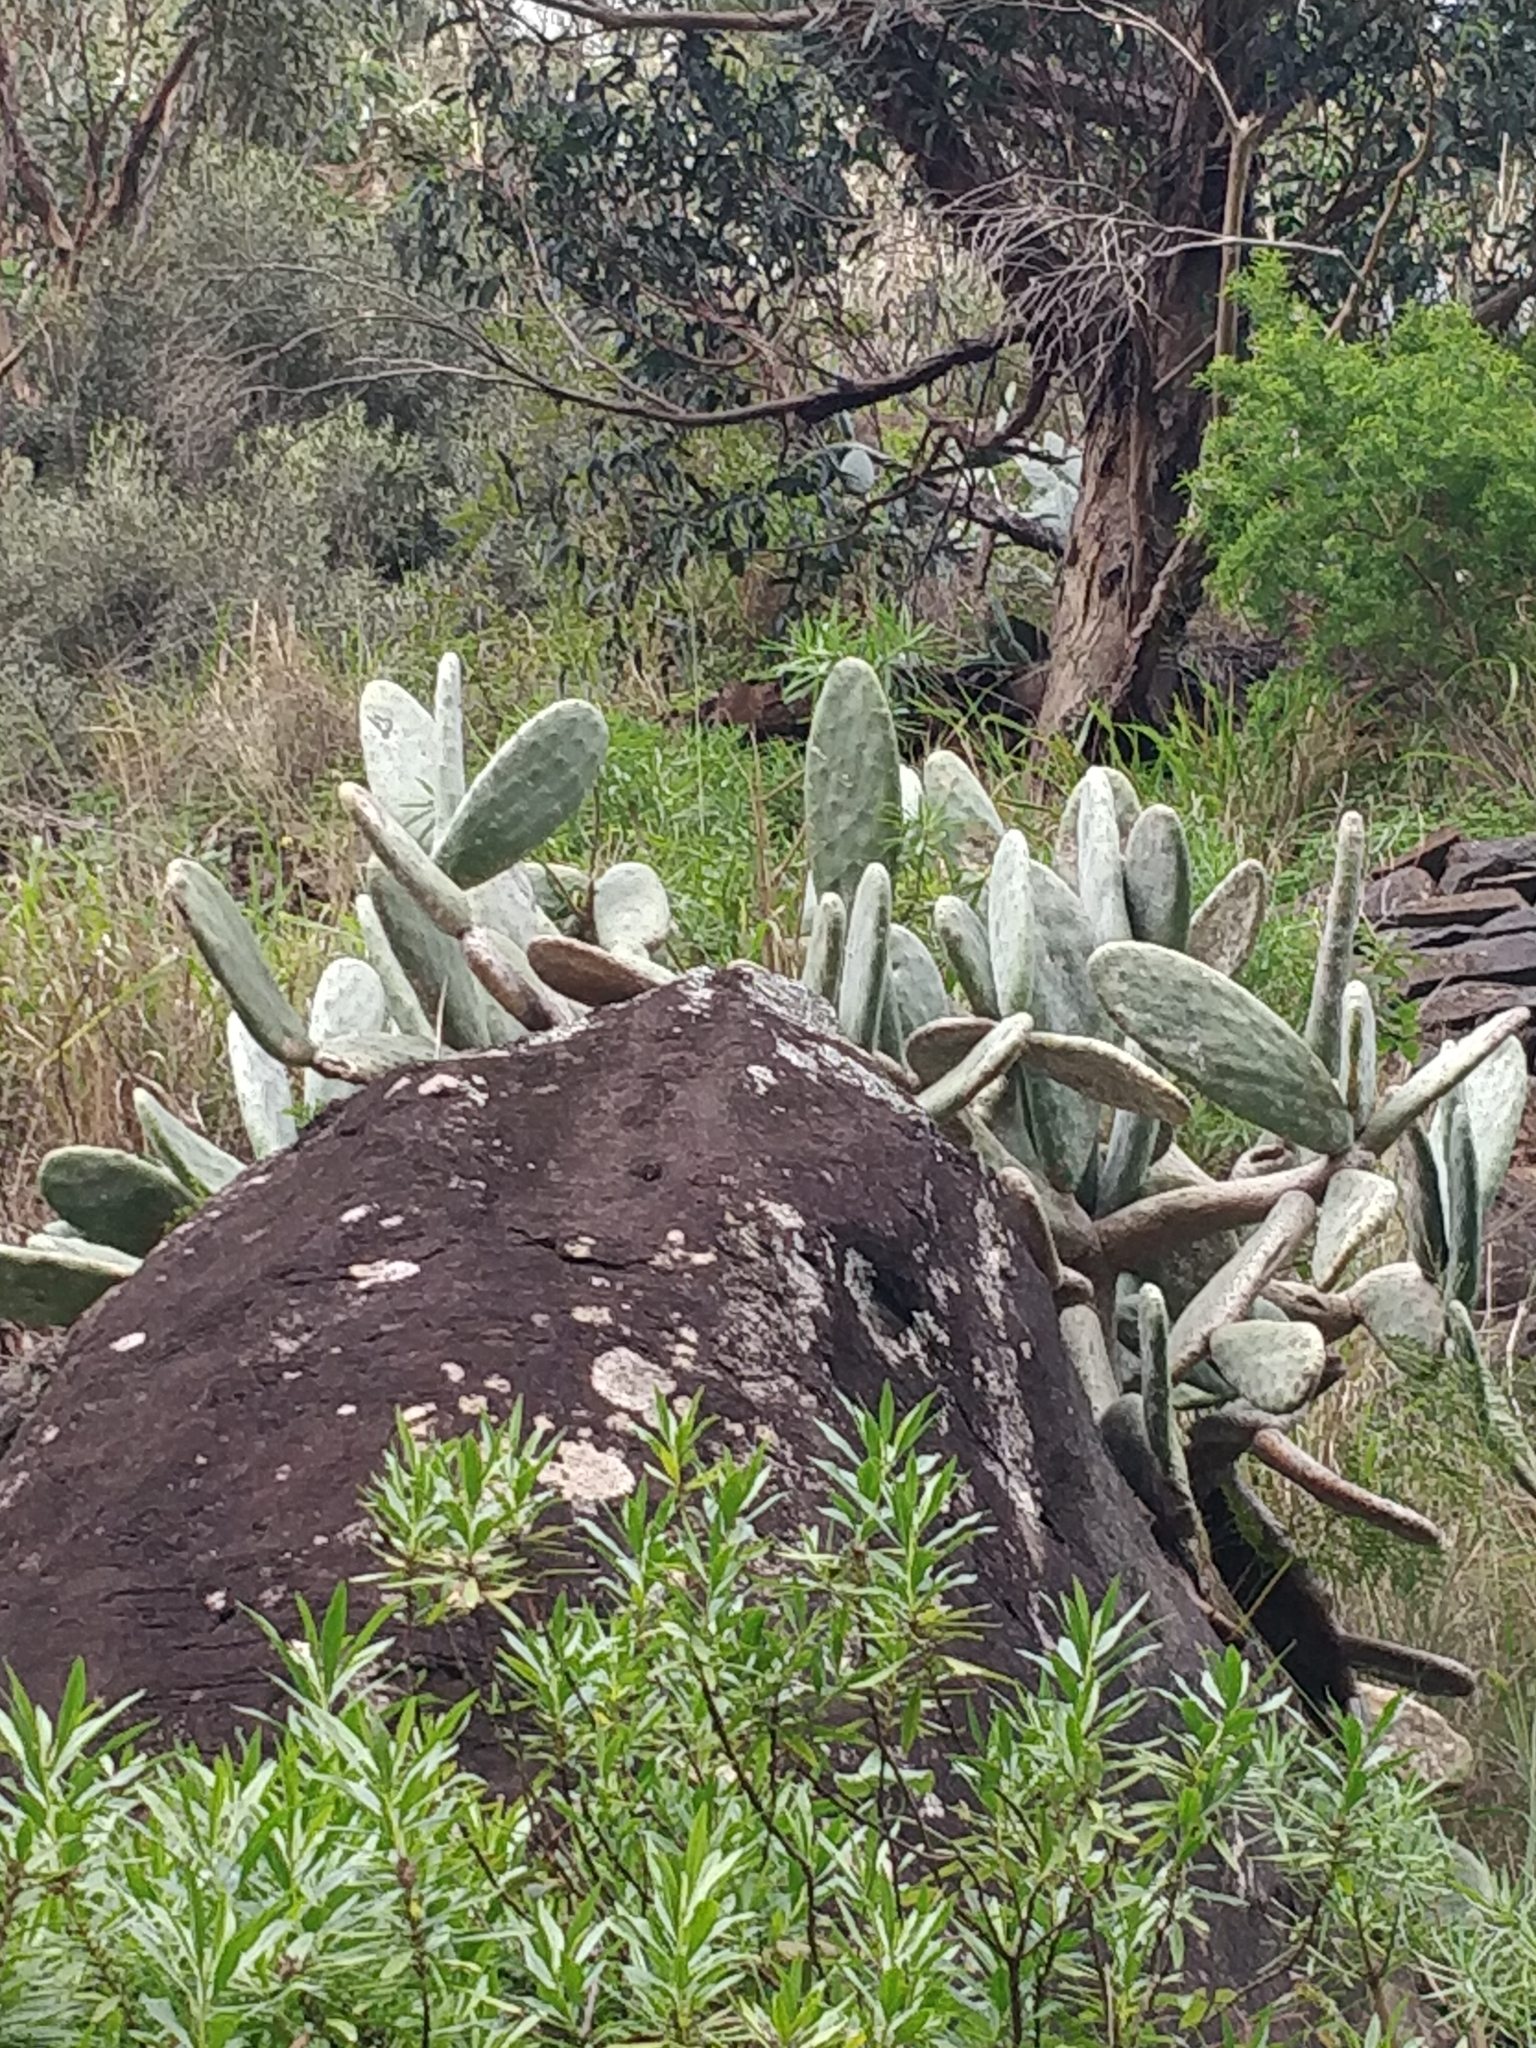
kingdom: Plantae
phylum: Tracheophyta
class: Magnoliopsida
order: Caryophyllales
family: Cactaceae
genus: Opuntia
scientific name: Opuntia ficus-indica
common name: Barbary fig
